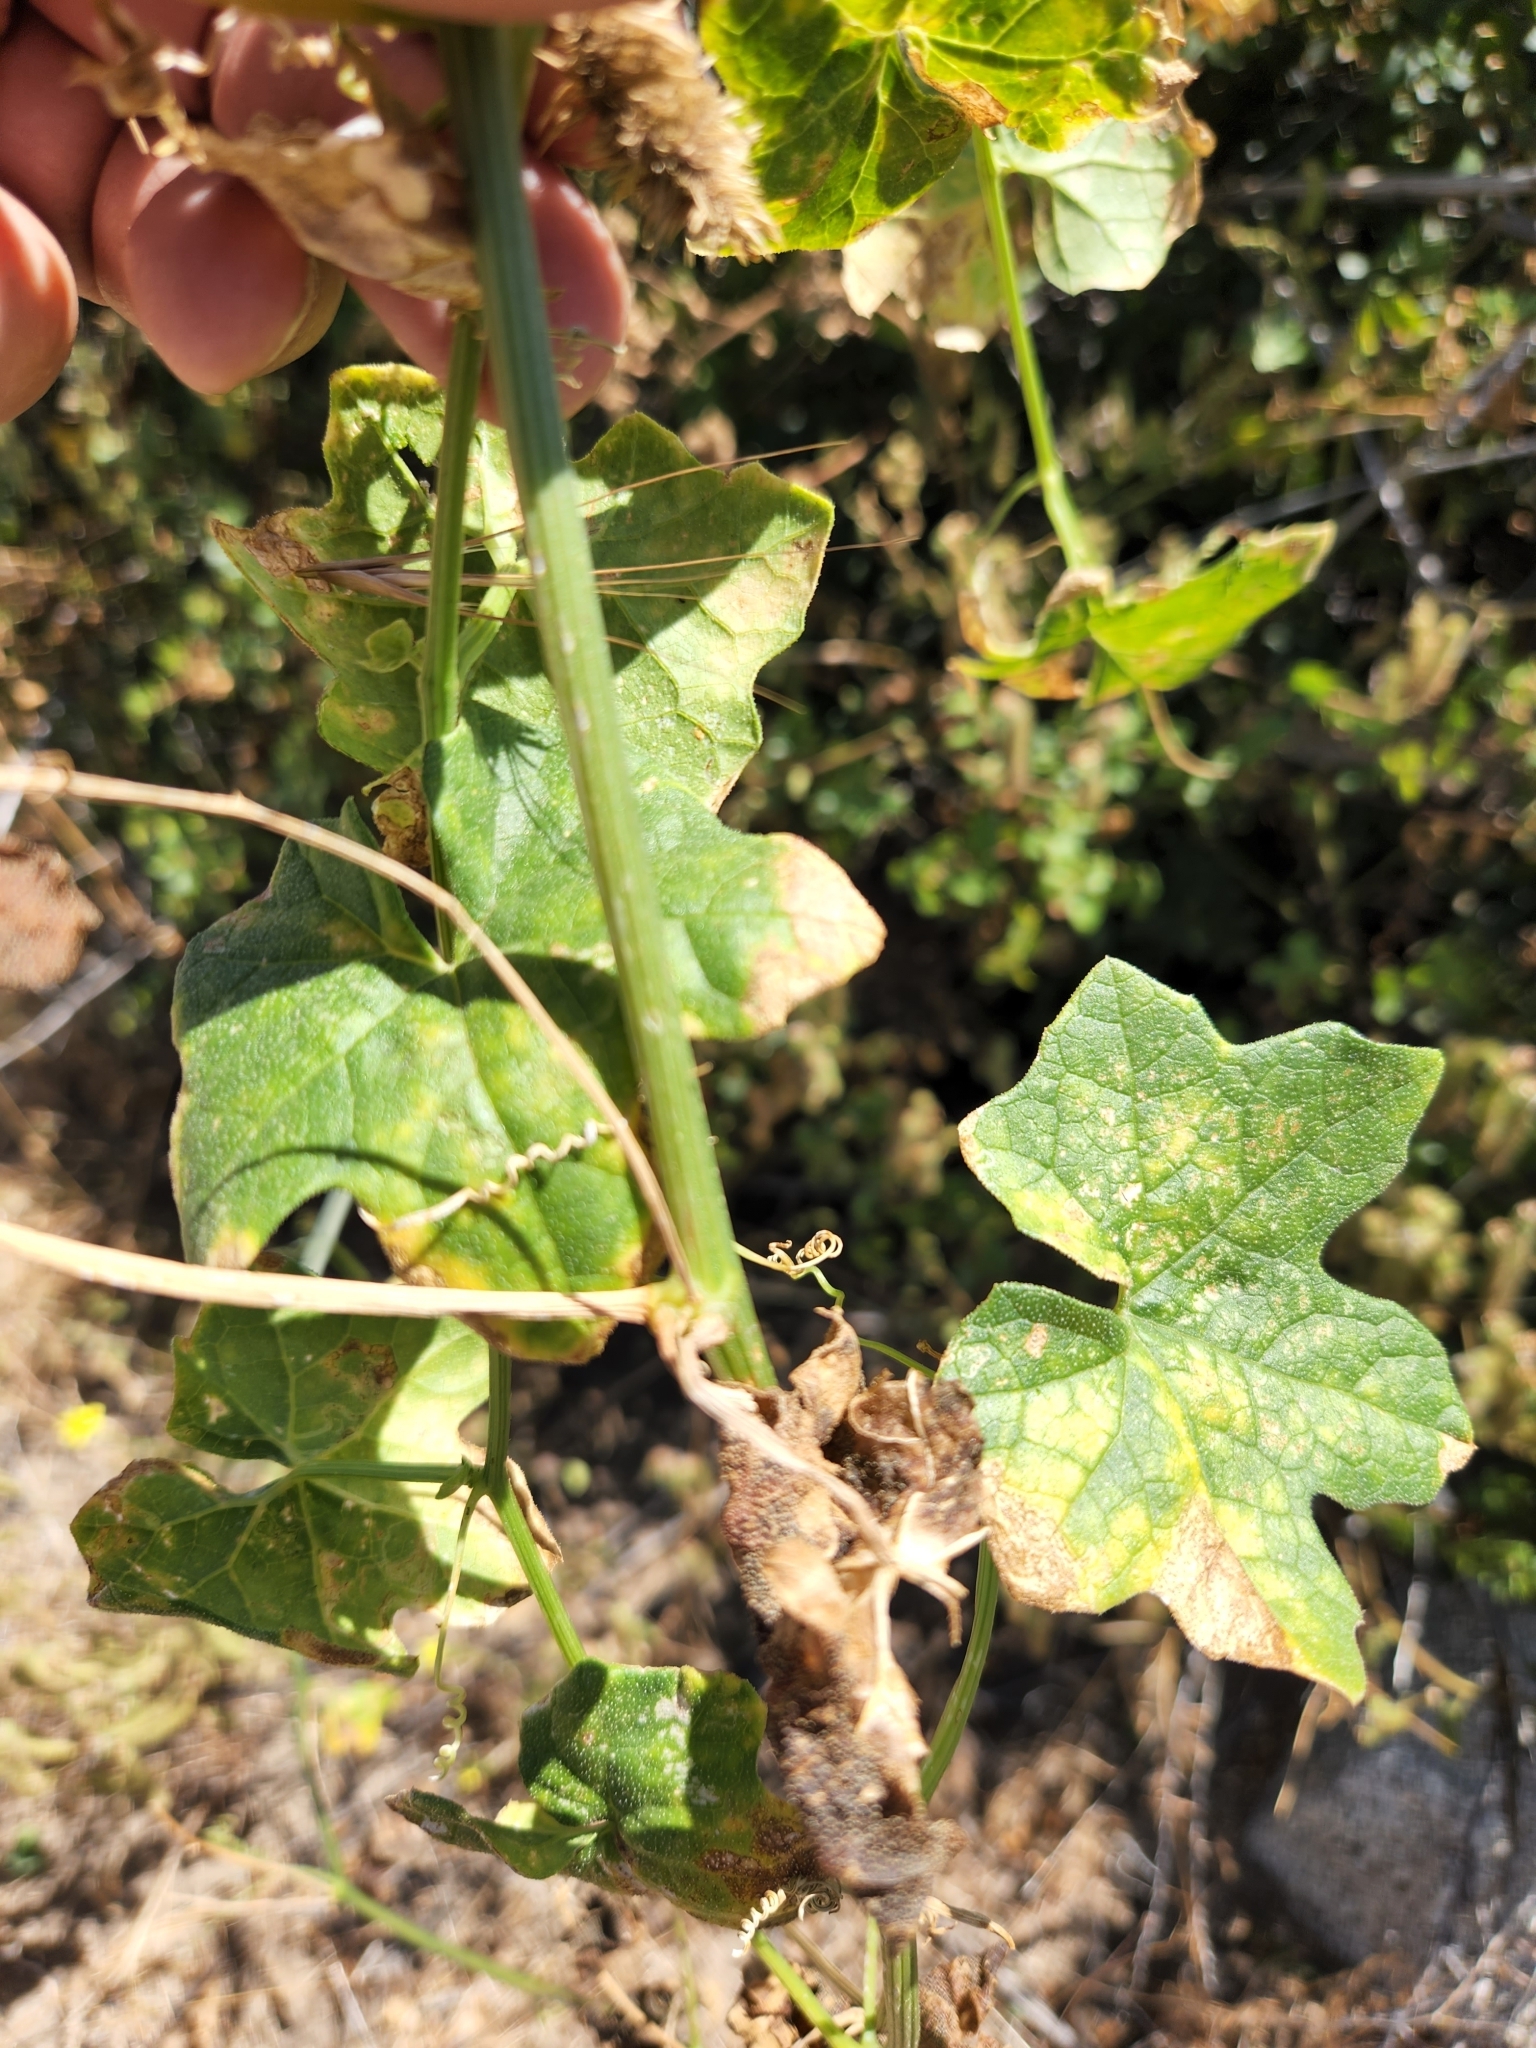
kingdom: Plantae
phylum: Tracheophyta
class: Magnoliopsida
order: Cucurbitales
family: Cucurbitaceae
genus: Marah
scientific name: Marah macrocarpa
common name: Cucamonga manroot
